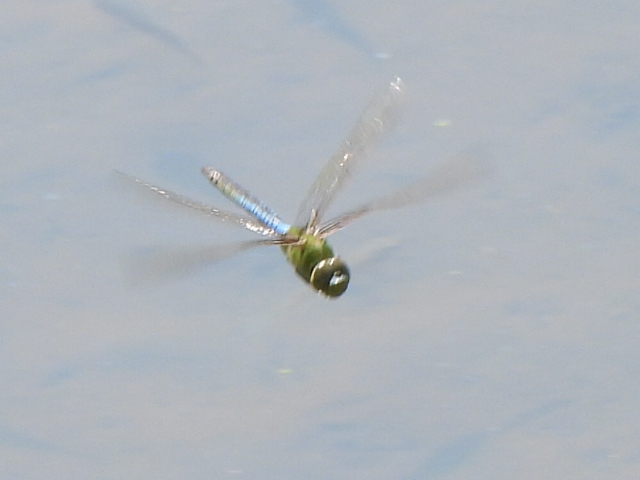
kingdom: Animalia
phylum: Arthropoda
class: Insecta
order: Odonata
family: Aeshnidae
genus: Anax
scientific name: Anax junius
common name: Common green darner
